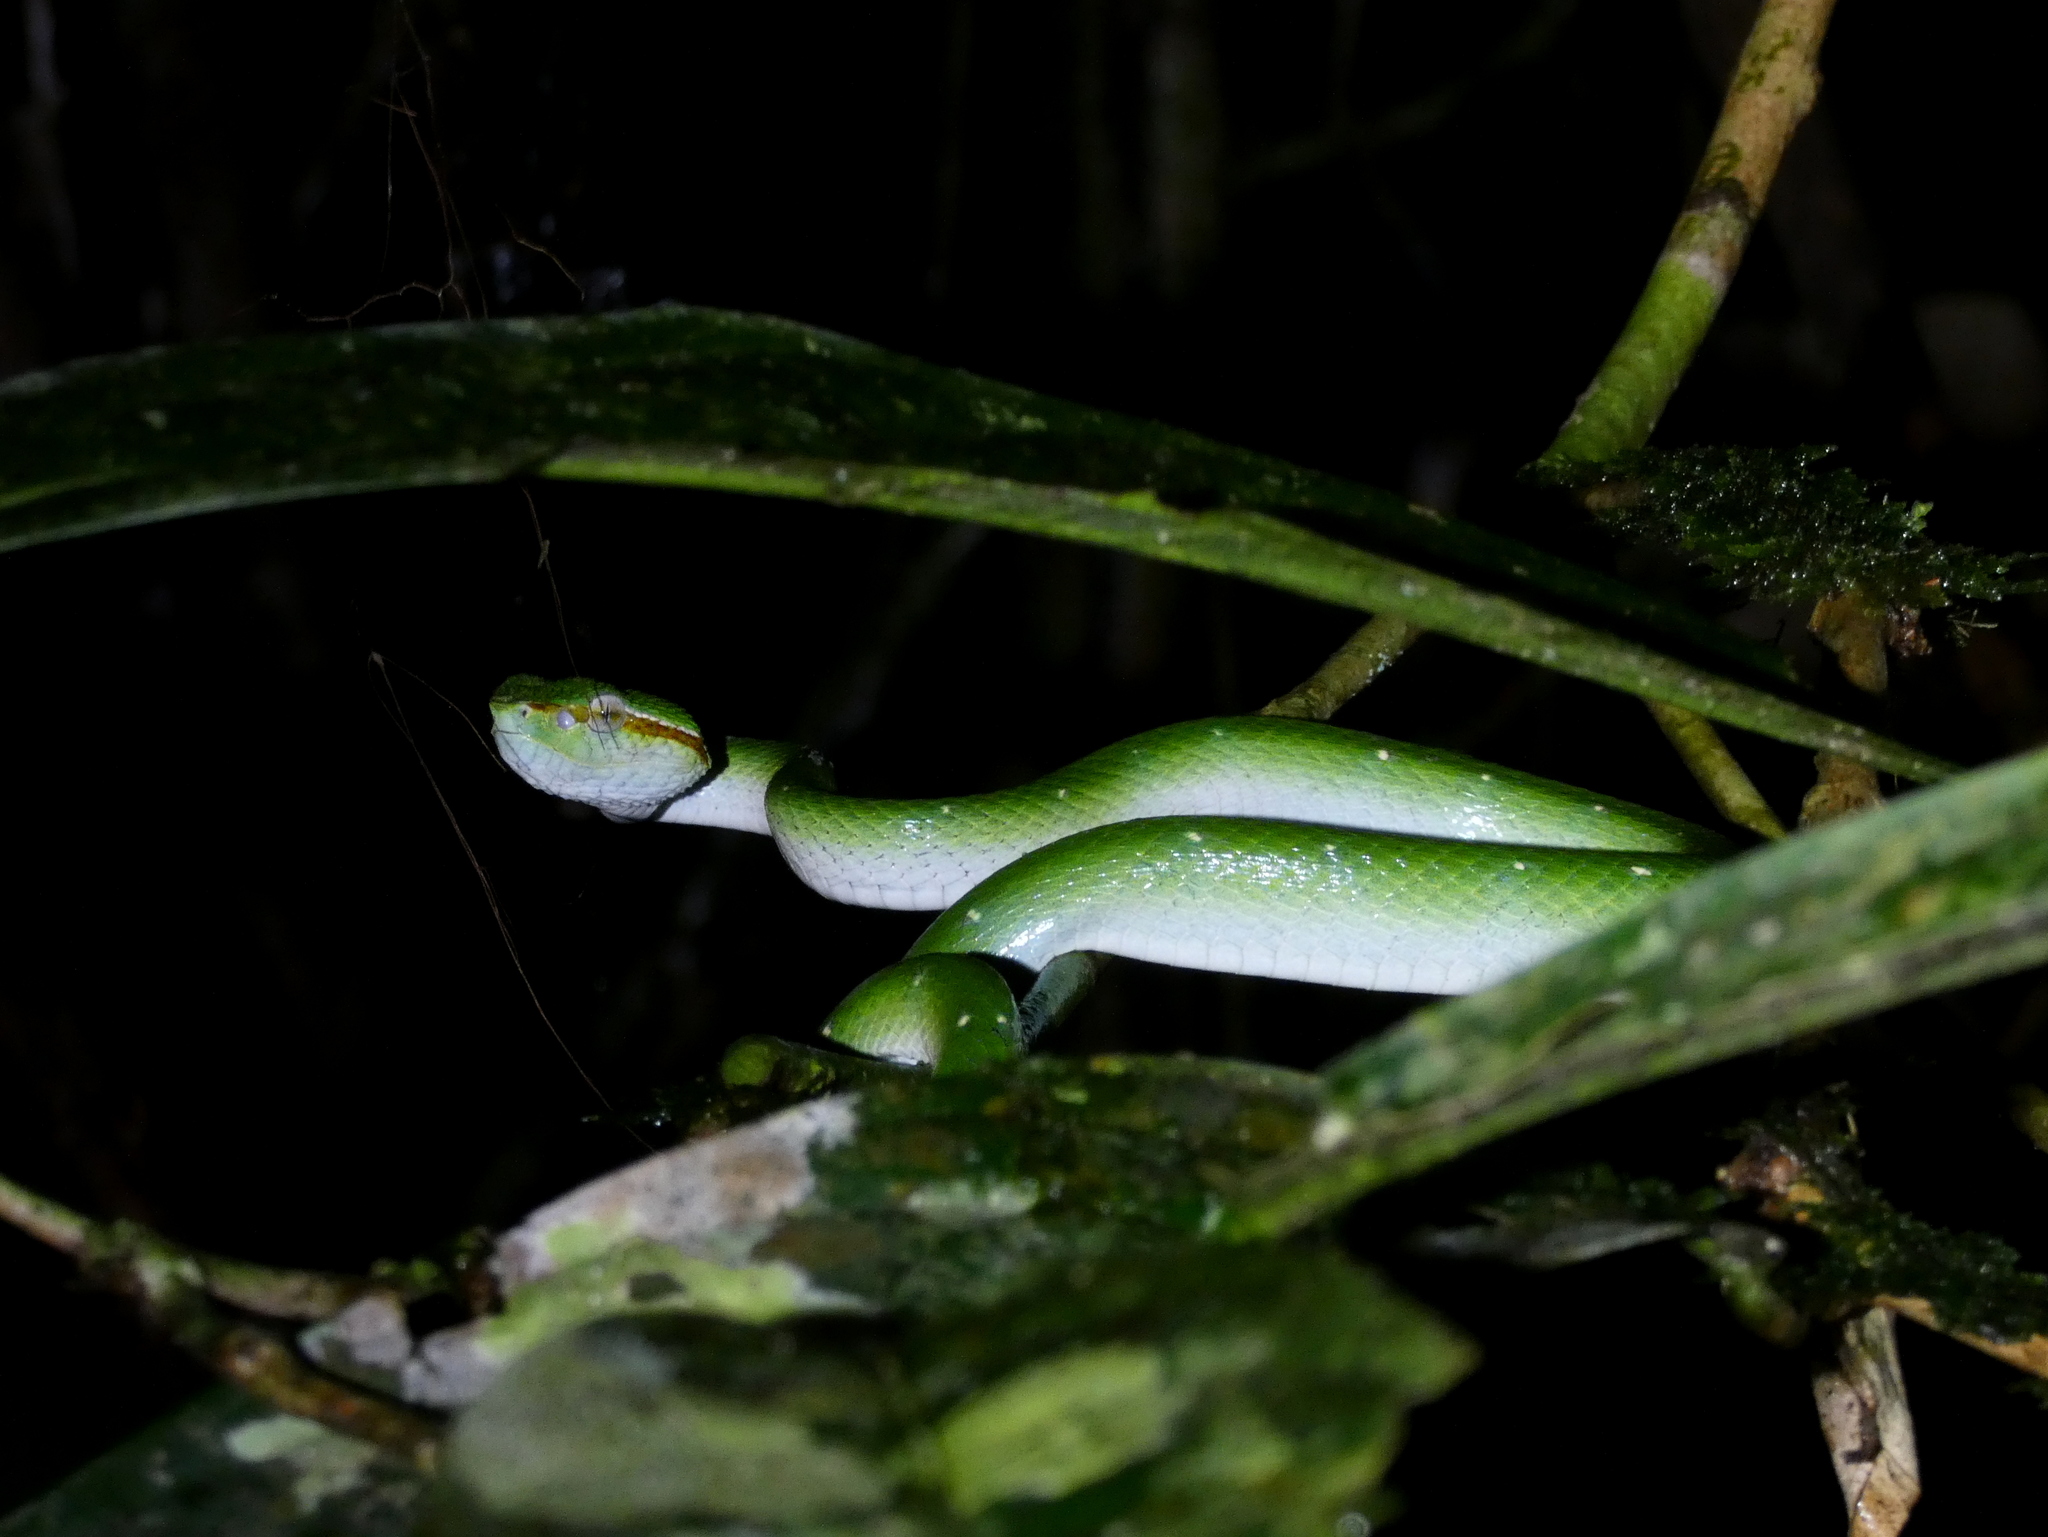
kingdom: Animalia
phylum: Chordata
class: Squamata
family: Viperidae
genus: Tropidolaemus
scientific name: Tropidolaemus subannulatus
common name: North philippine temple pitviper
